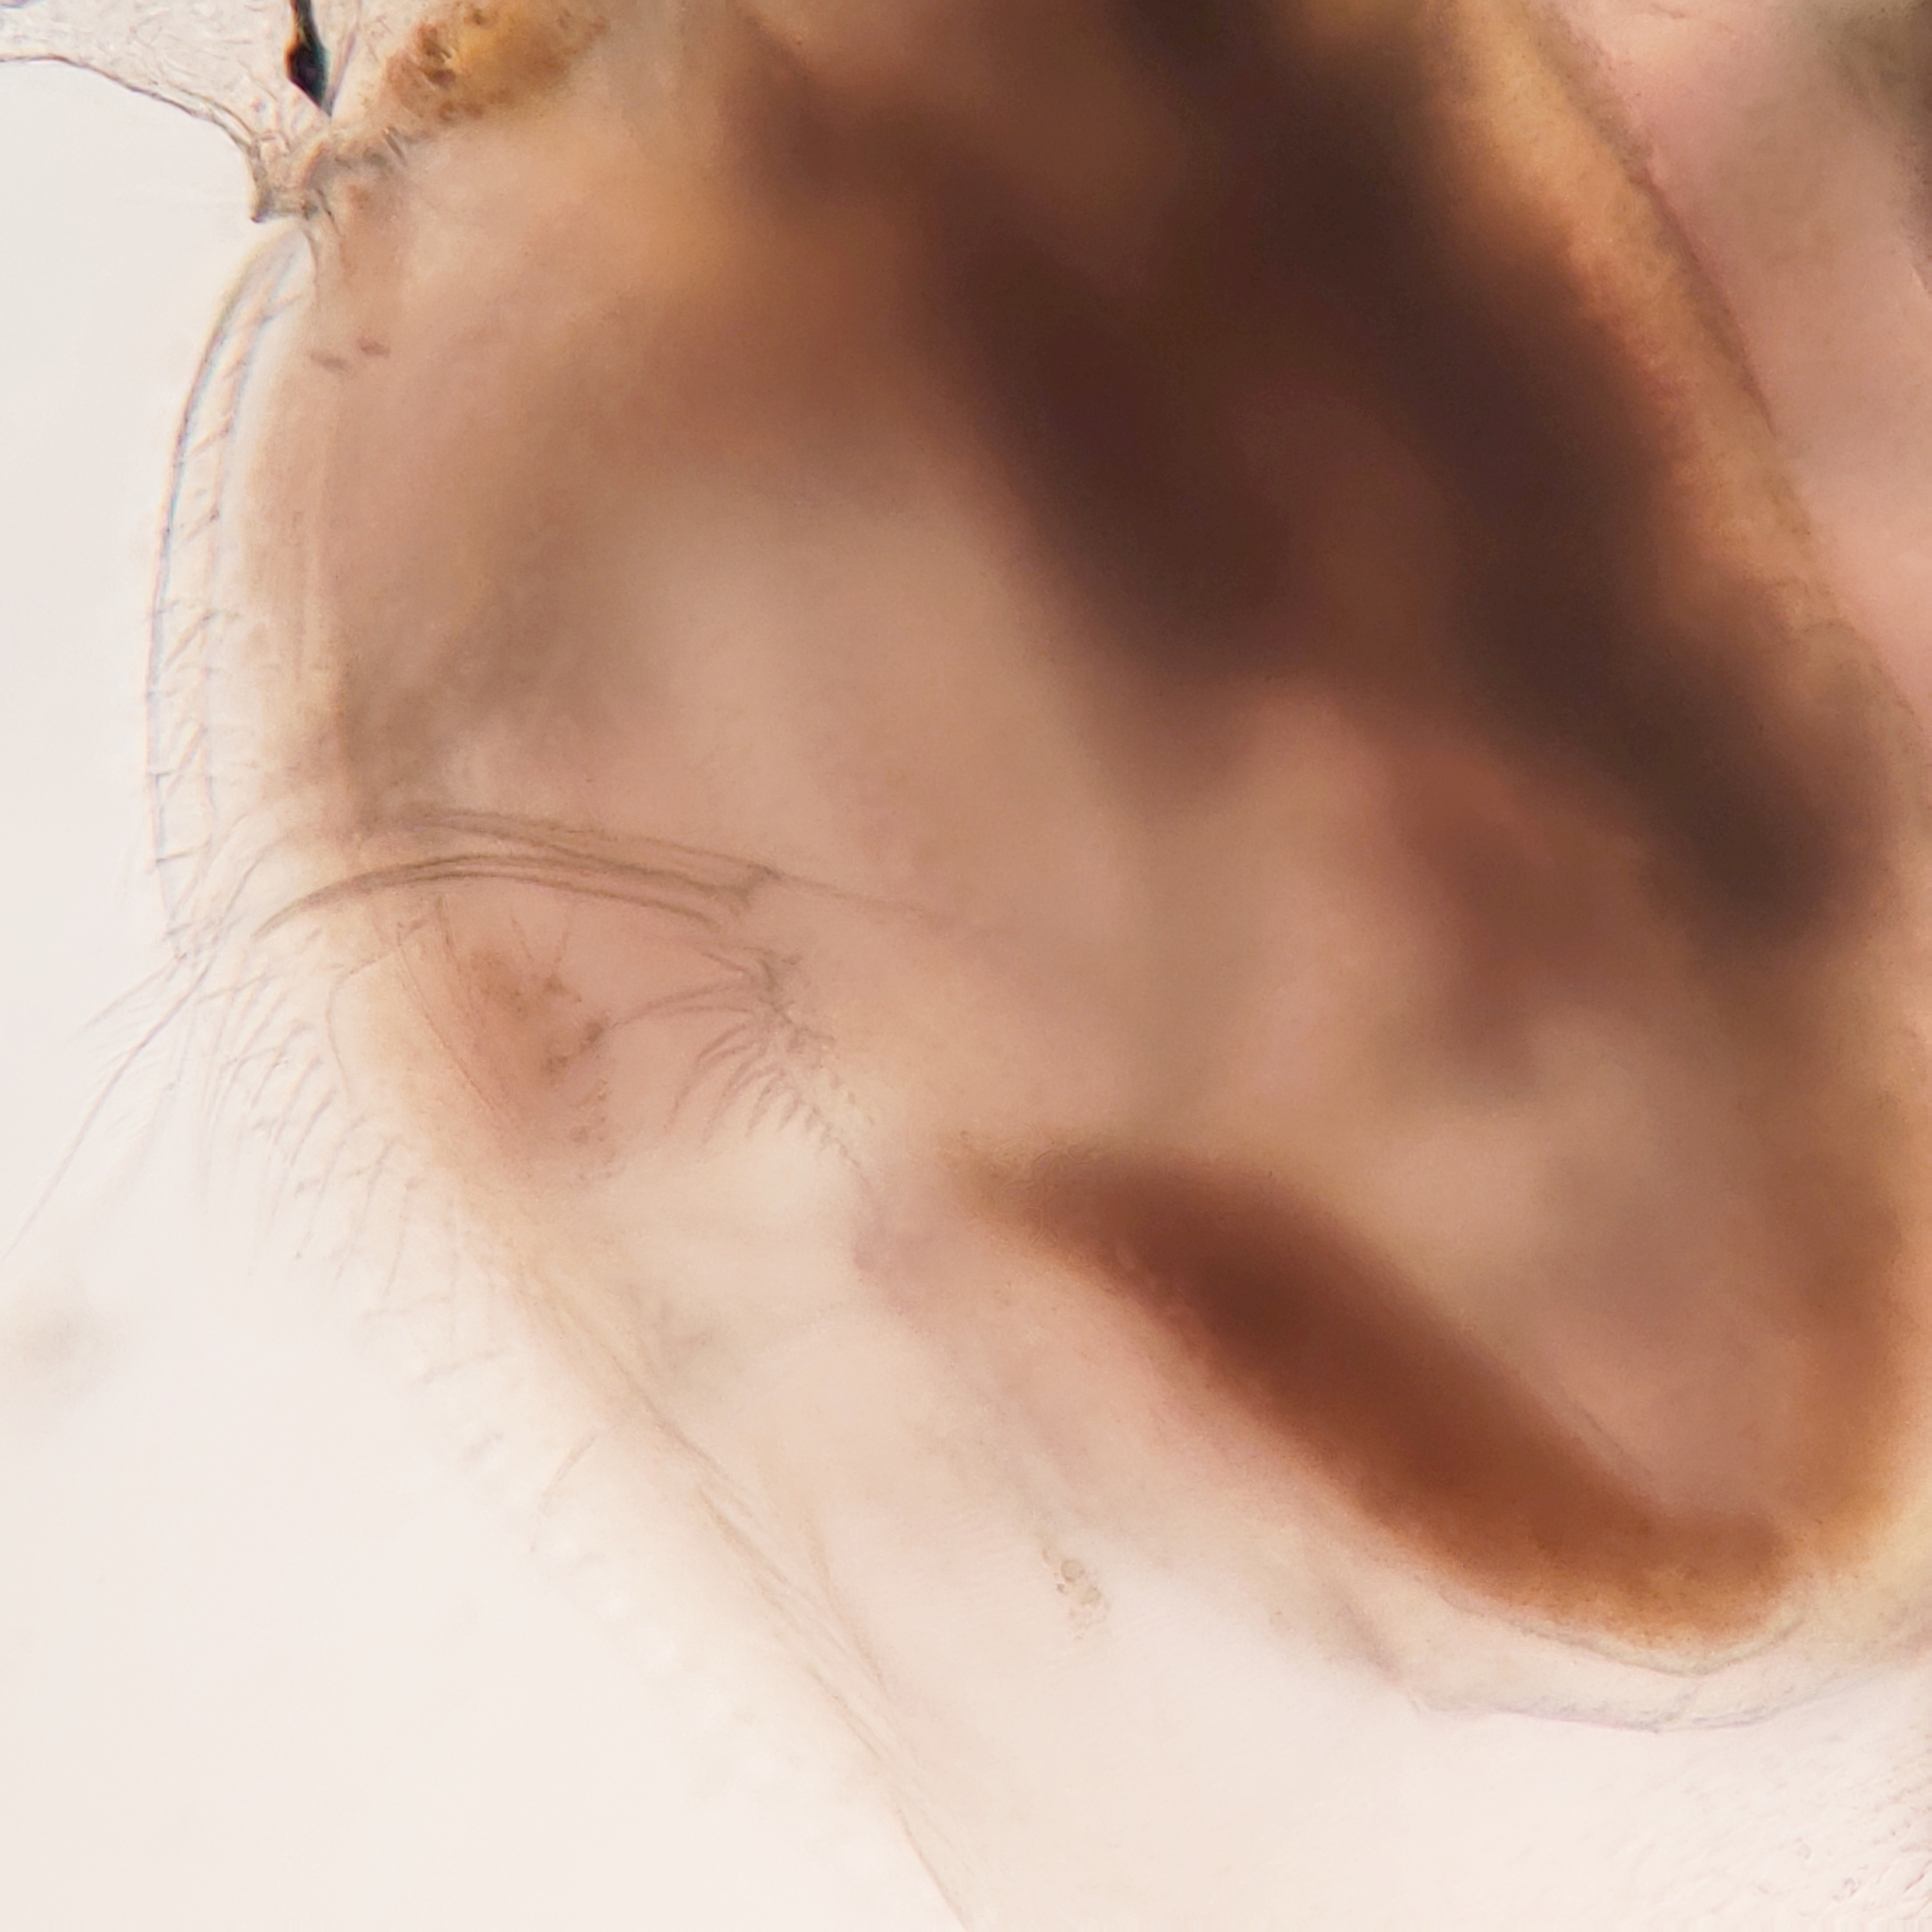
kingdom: Animalia
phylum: Arthropoda
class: Branchiopoda
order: Diplostraca
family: Daphniidae
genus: Simocephalus
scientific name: Simocephalus vetulus
